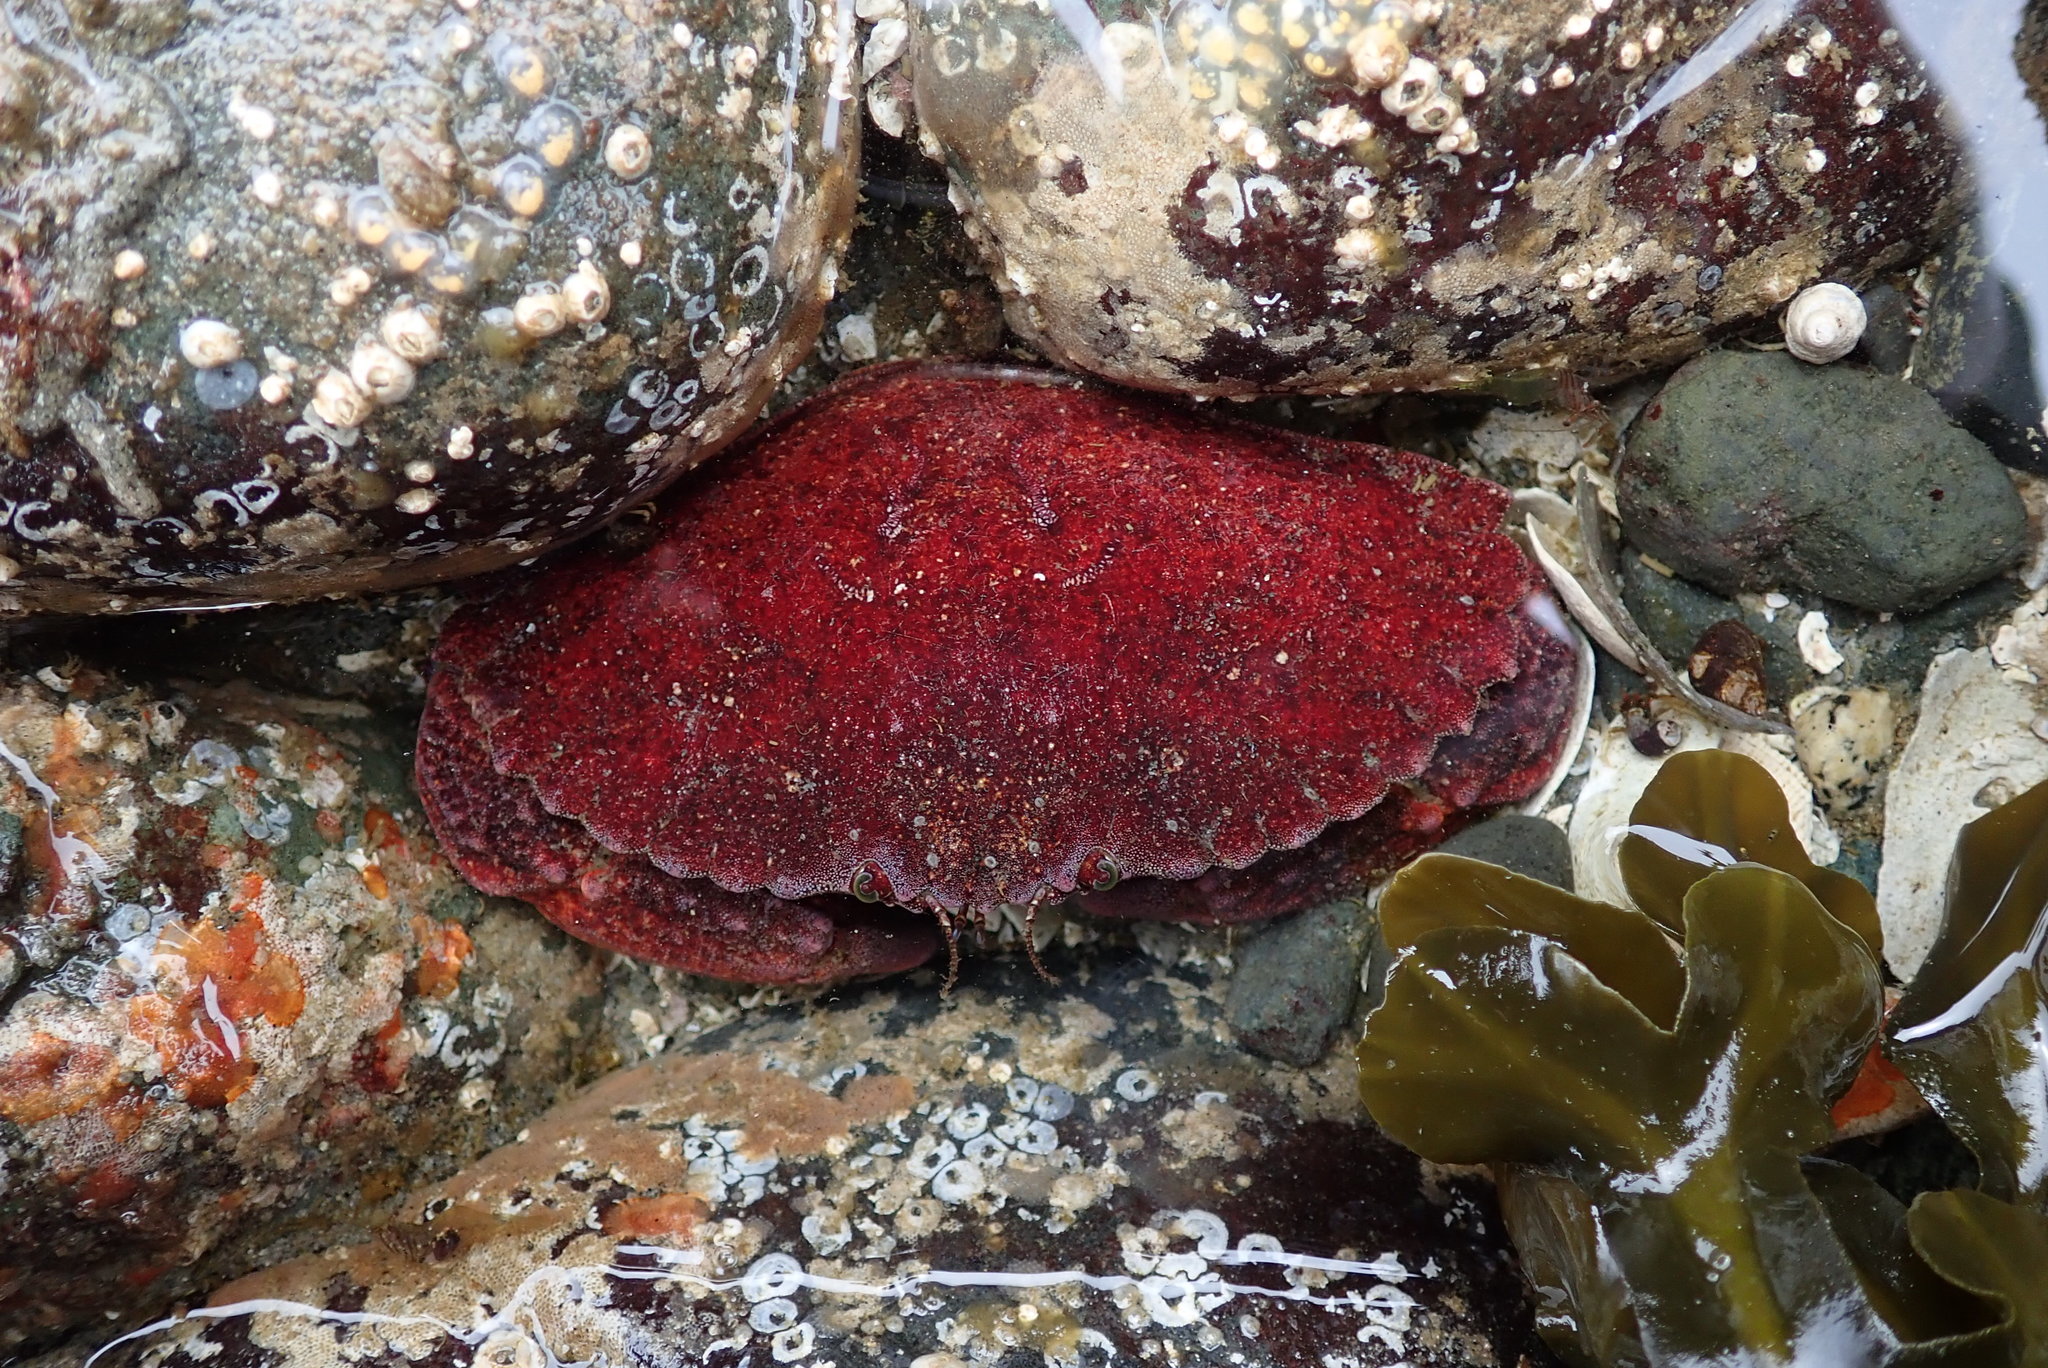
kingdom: Animalia
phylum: Arthropoda
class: Malacostraca
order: Decapoda
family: Cancridae
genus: Cancer
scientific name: Cancer productus
